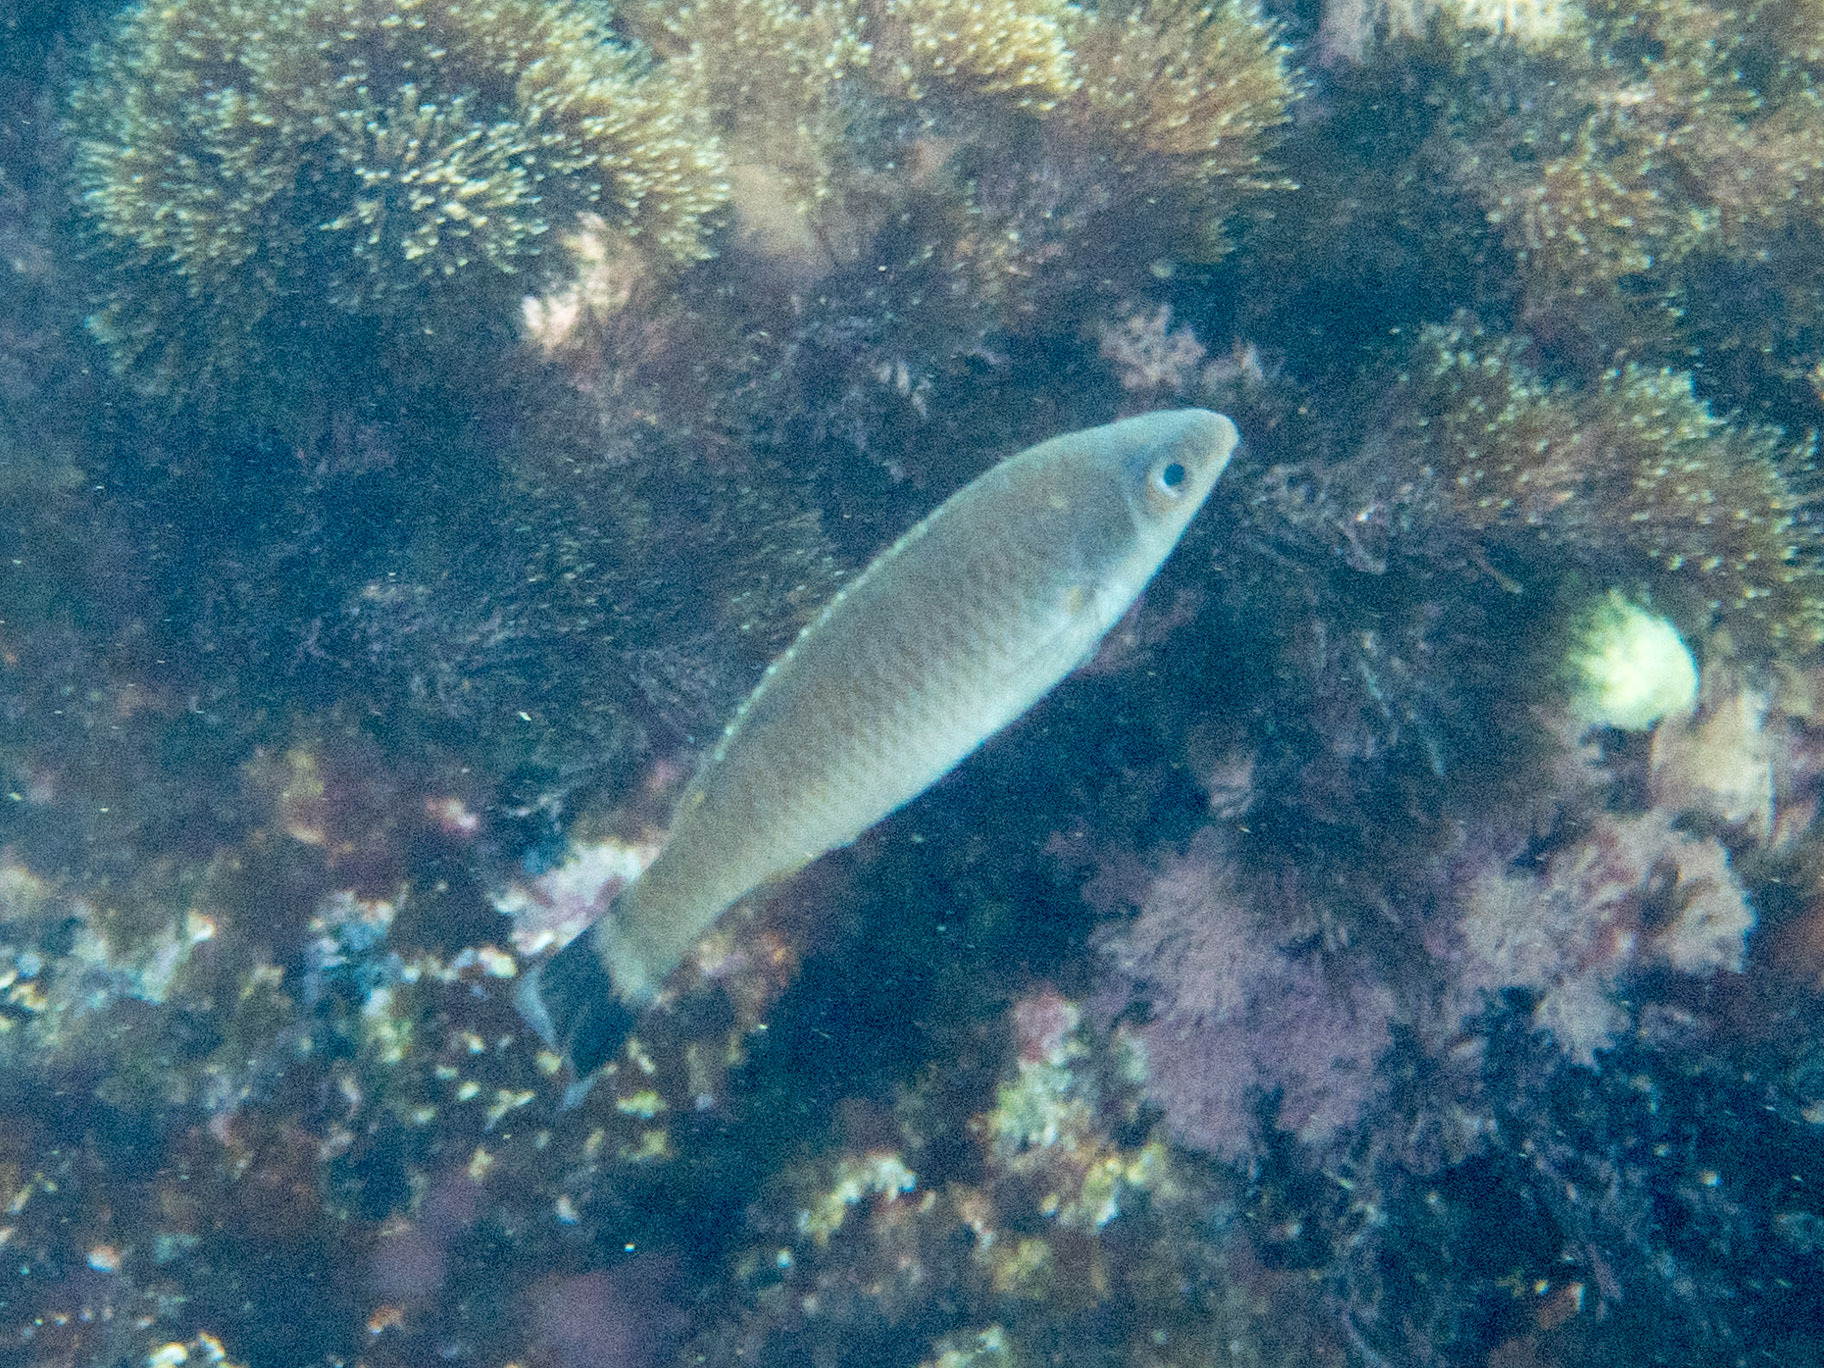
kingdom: Animalia
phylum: Chordata
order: Perciformes
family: Labridae
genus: Centrolabrus
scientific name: Centrolabrus melanocercus
